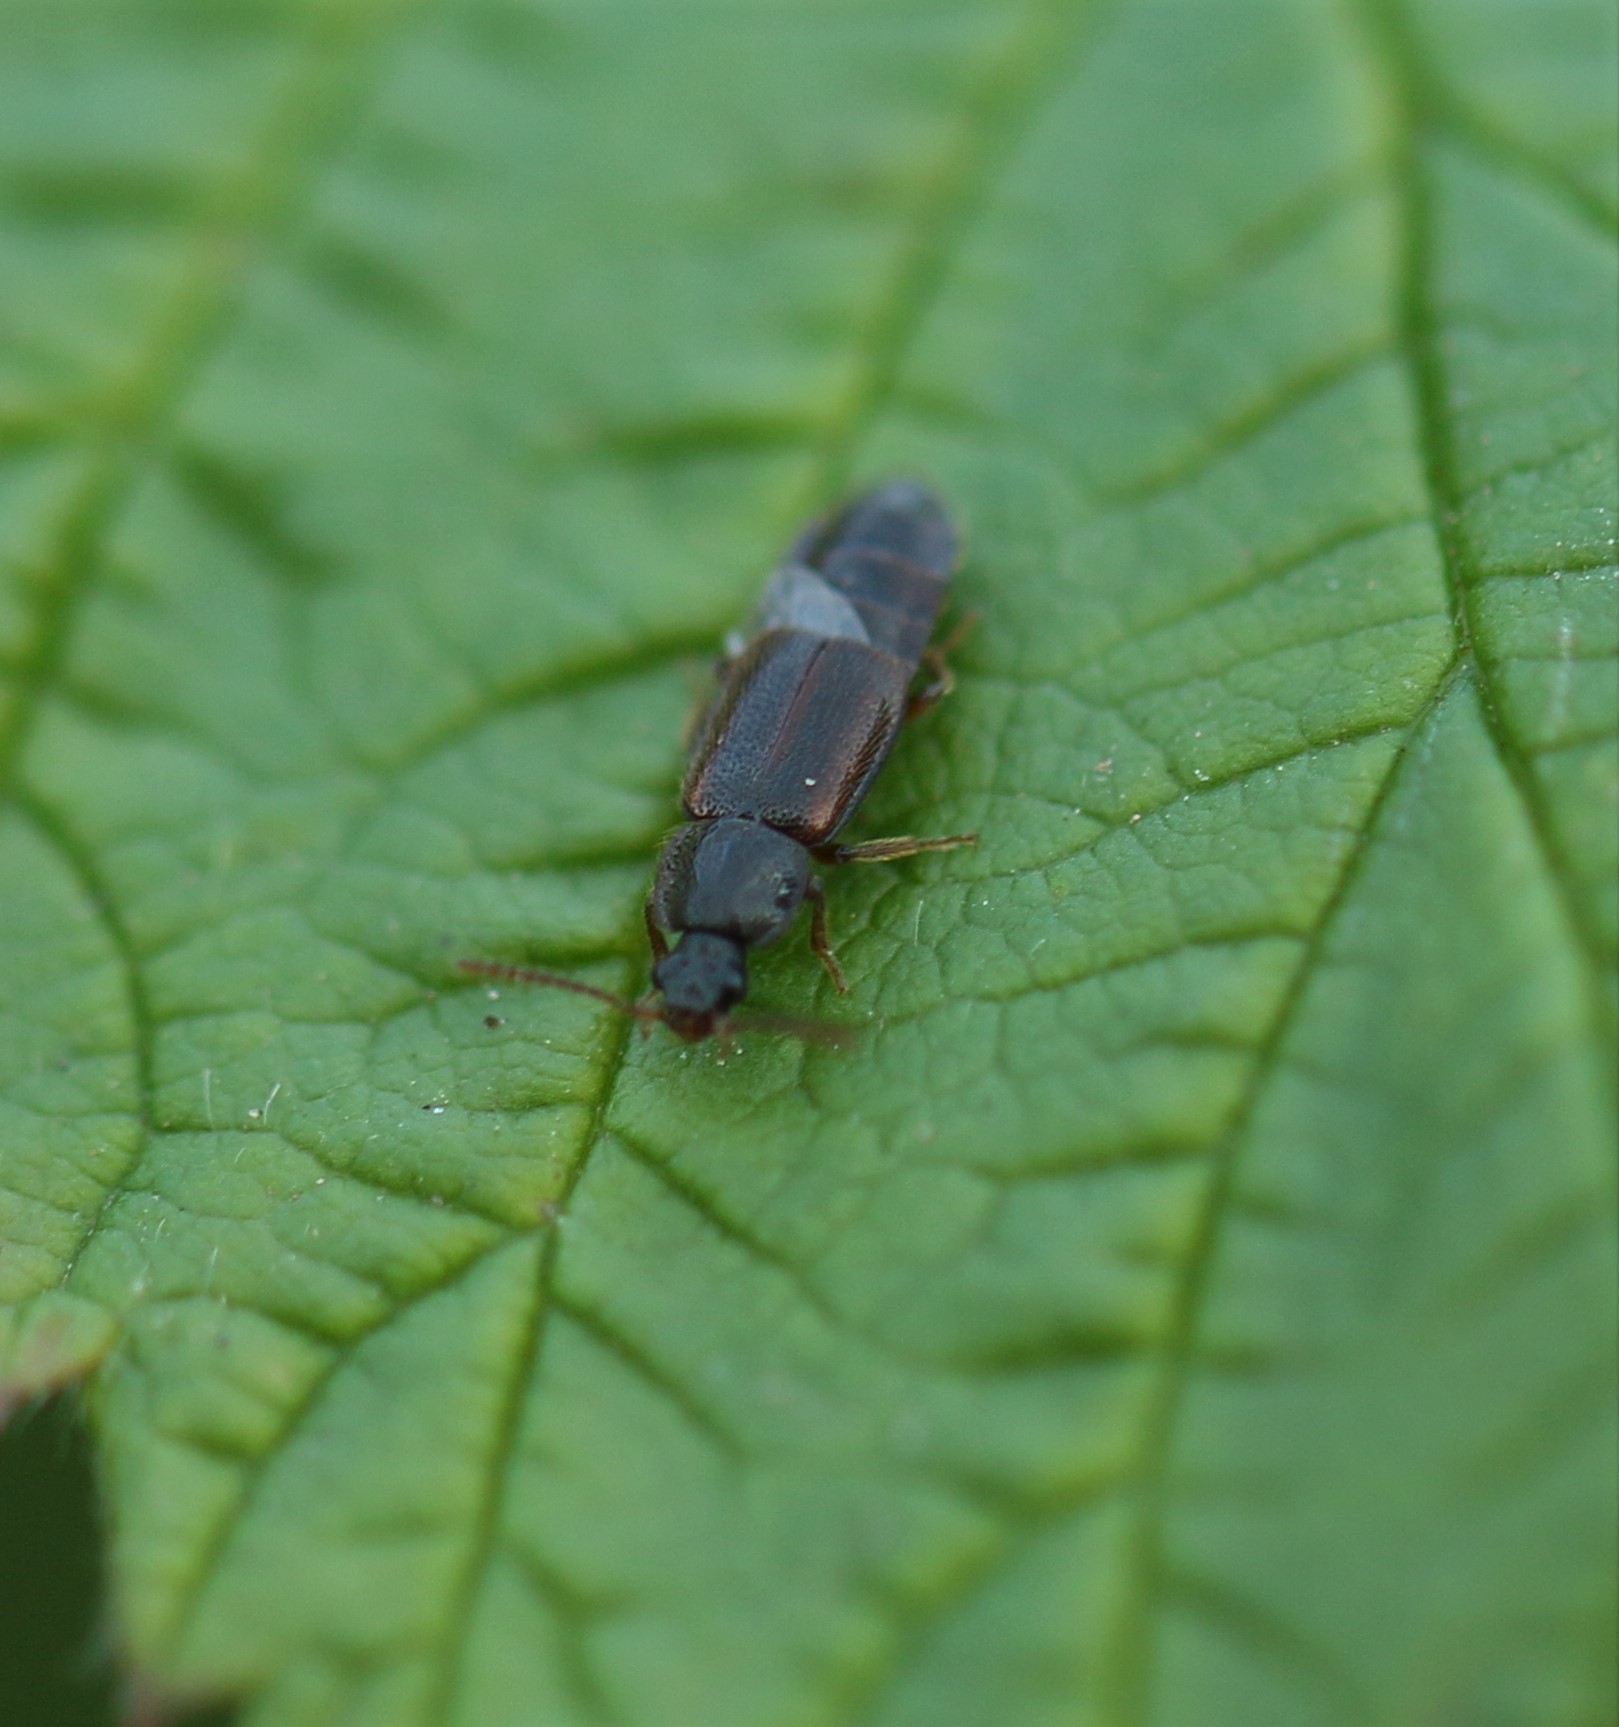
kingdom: Animalia
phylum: Arthropoda
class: Insecta
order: Coleoptera
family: Staphylinidae
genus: Acidota
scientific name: Acidota subcarinata
